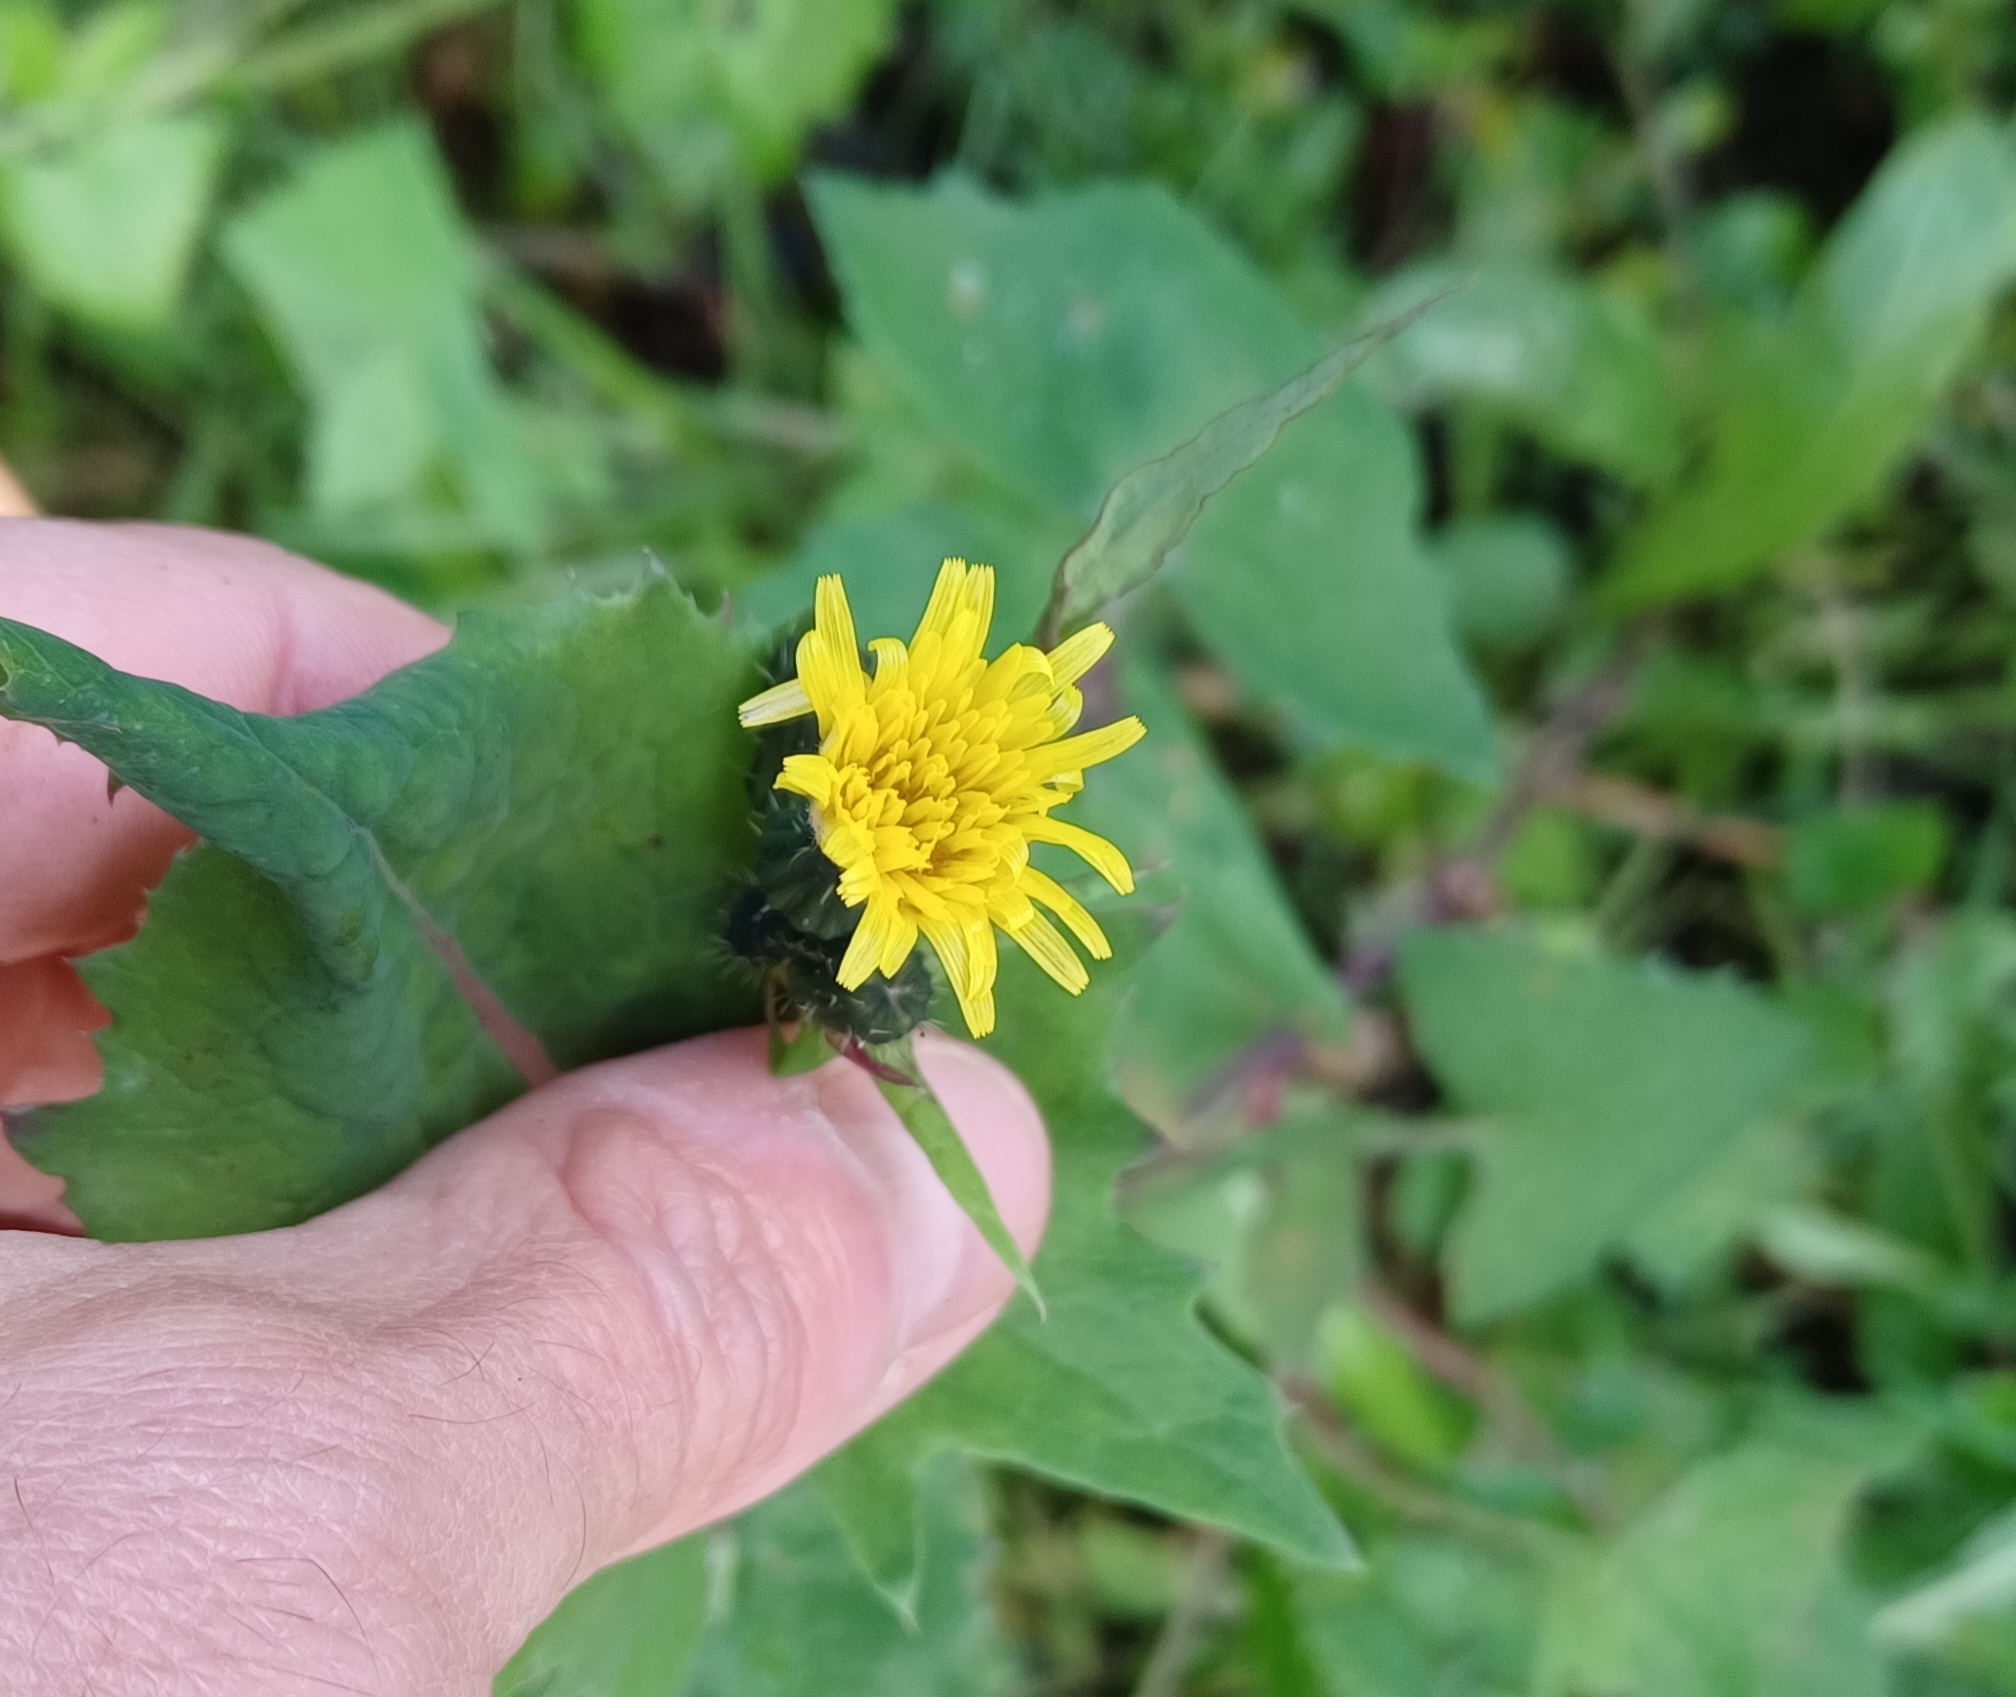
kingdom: Plantae
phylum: Tracheophyta
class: Magnoliopsida
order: Asterales
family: Asteraceae
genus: Sonchus
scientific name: Sonchus oleraceus
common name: Common sowthistle
